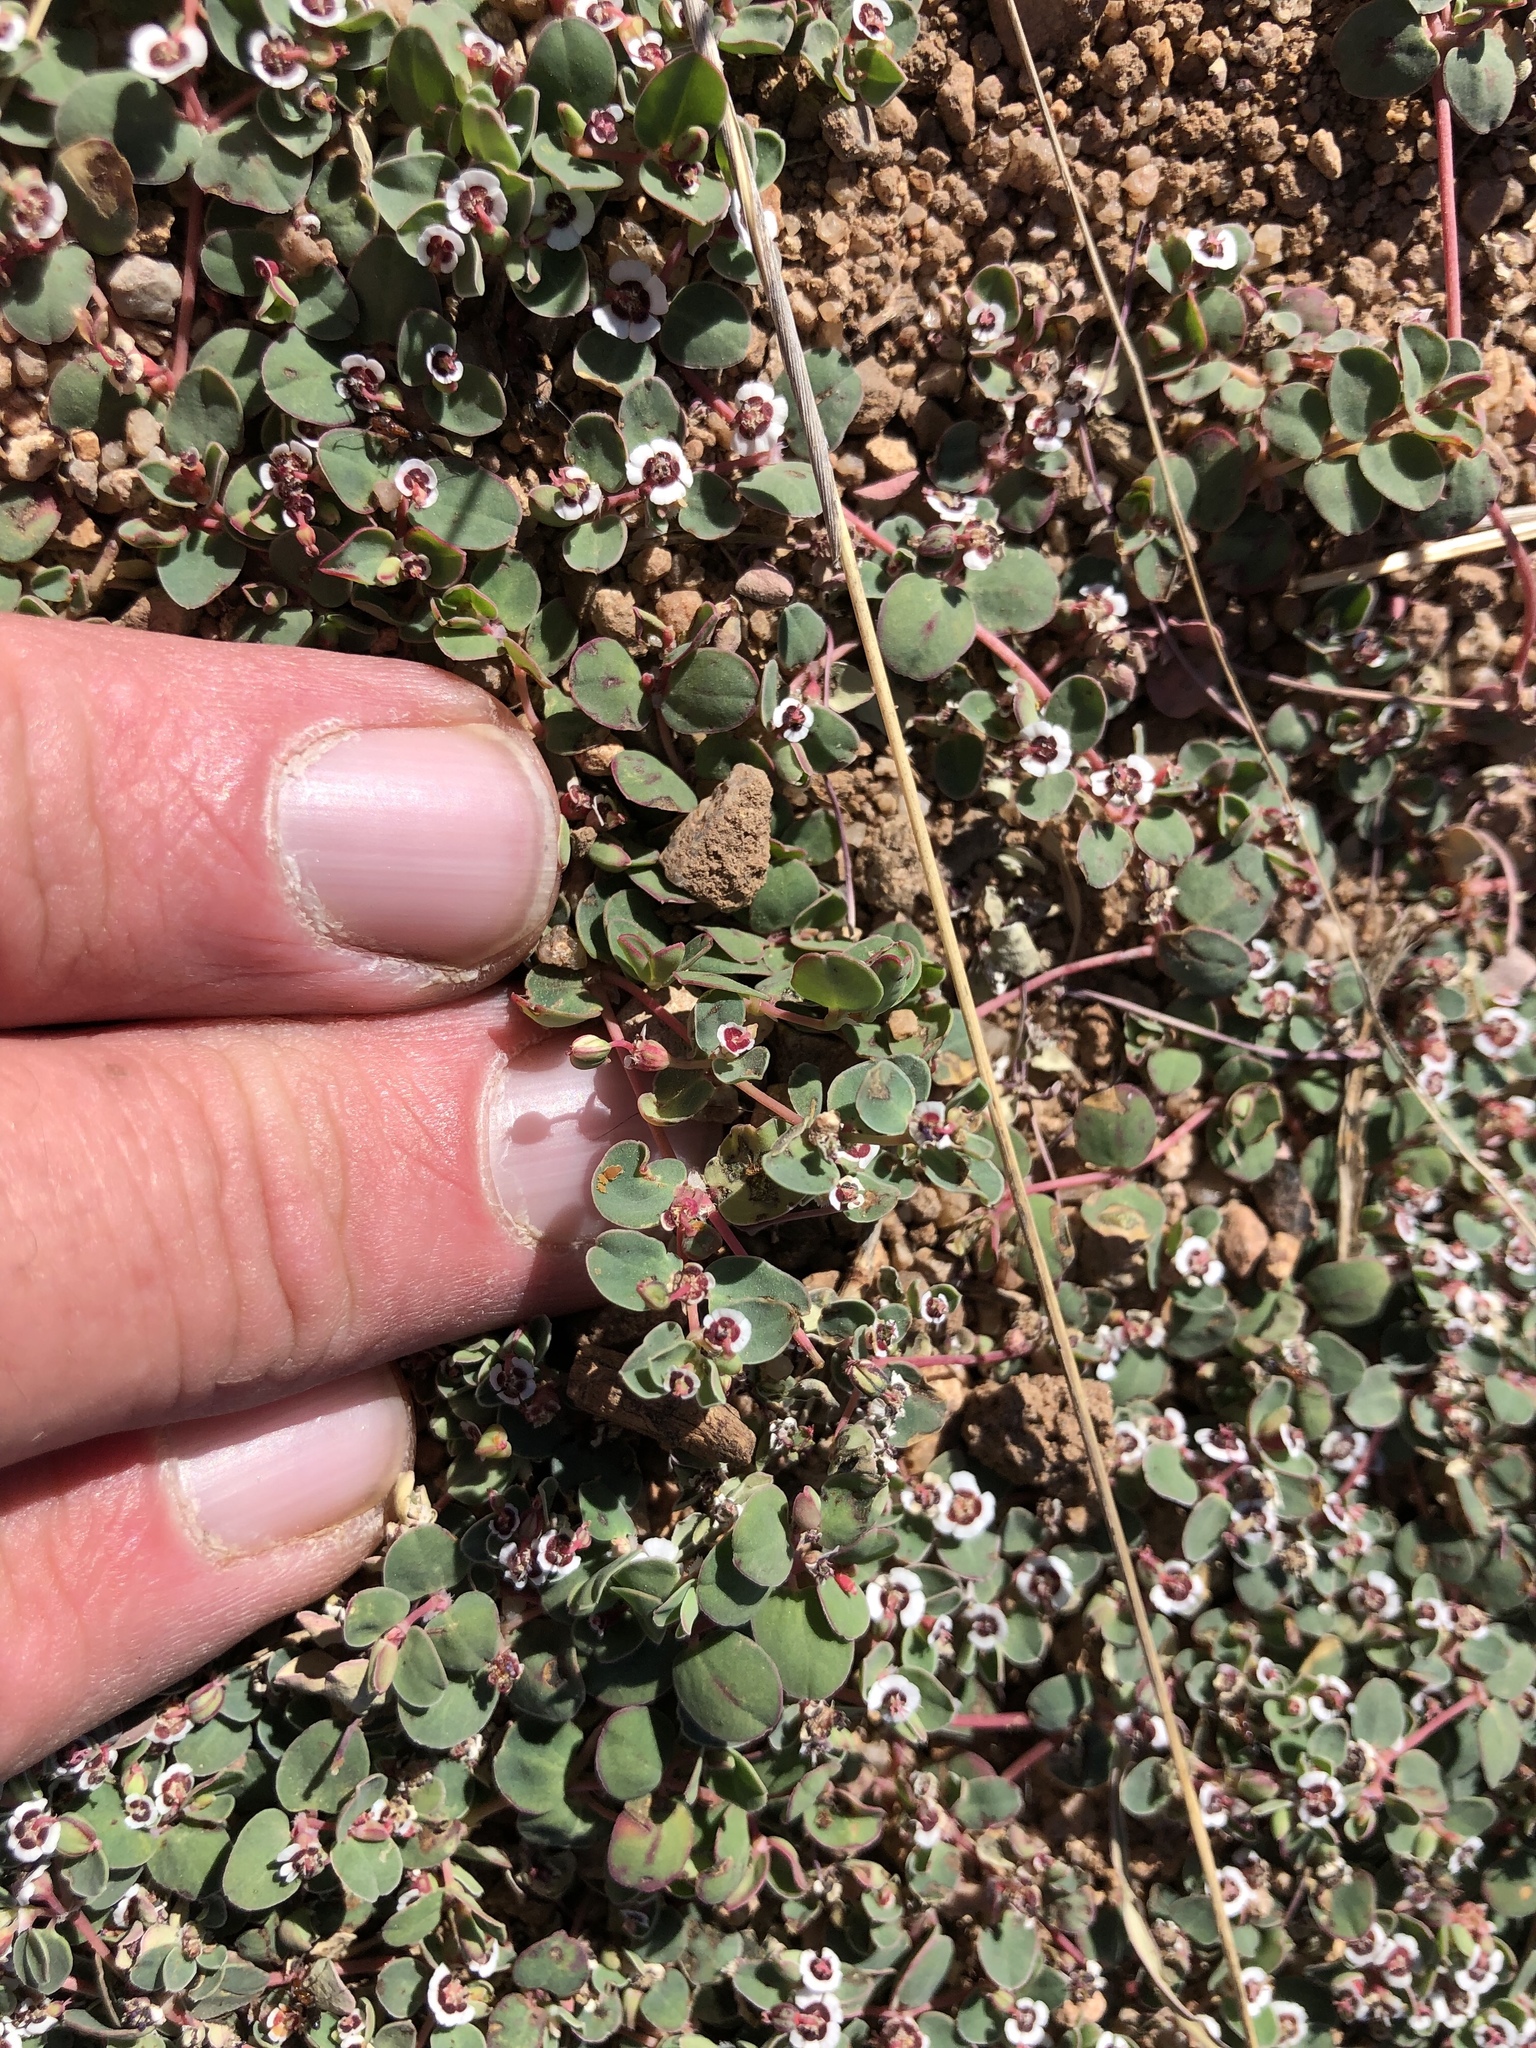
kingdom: Plantae
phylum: Tracheophyta
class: Magnoliopsida
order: Malpighiales
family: Euphorbiaceae
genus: Euphorbia
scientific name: Euphorbia albomarginata
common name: Whitemargin sandmat
